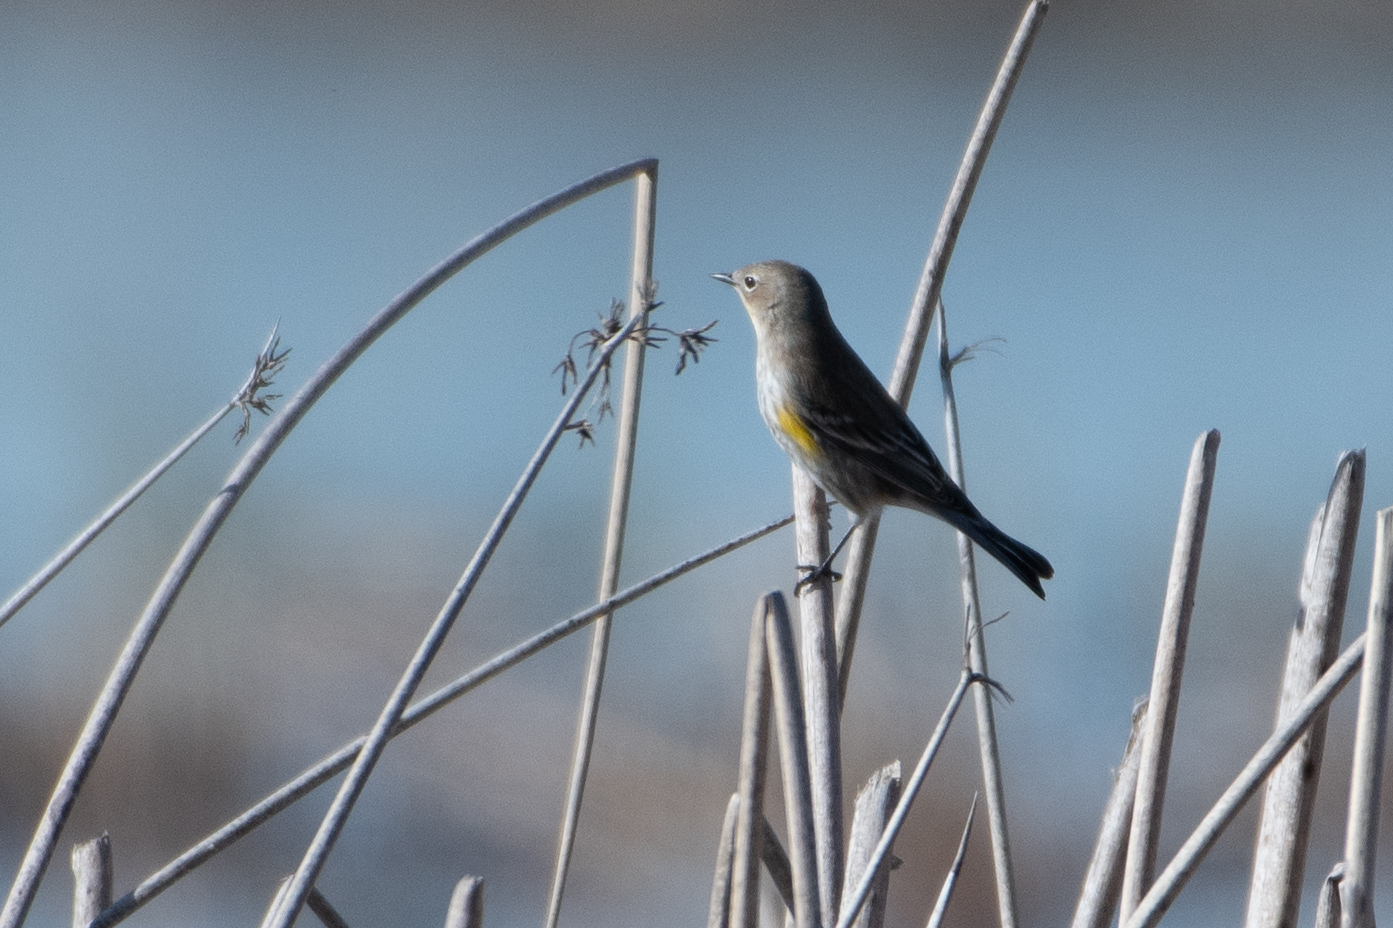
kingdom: Animalia
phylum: Chordata
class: Aves
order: Passeriformes
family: Parulidae
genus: Setophaga
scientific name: Setophaga coronata
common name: Myrtle warbler
